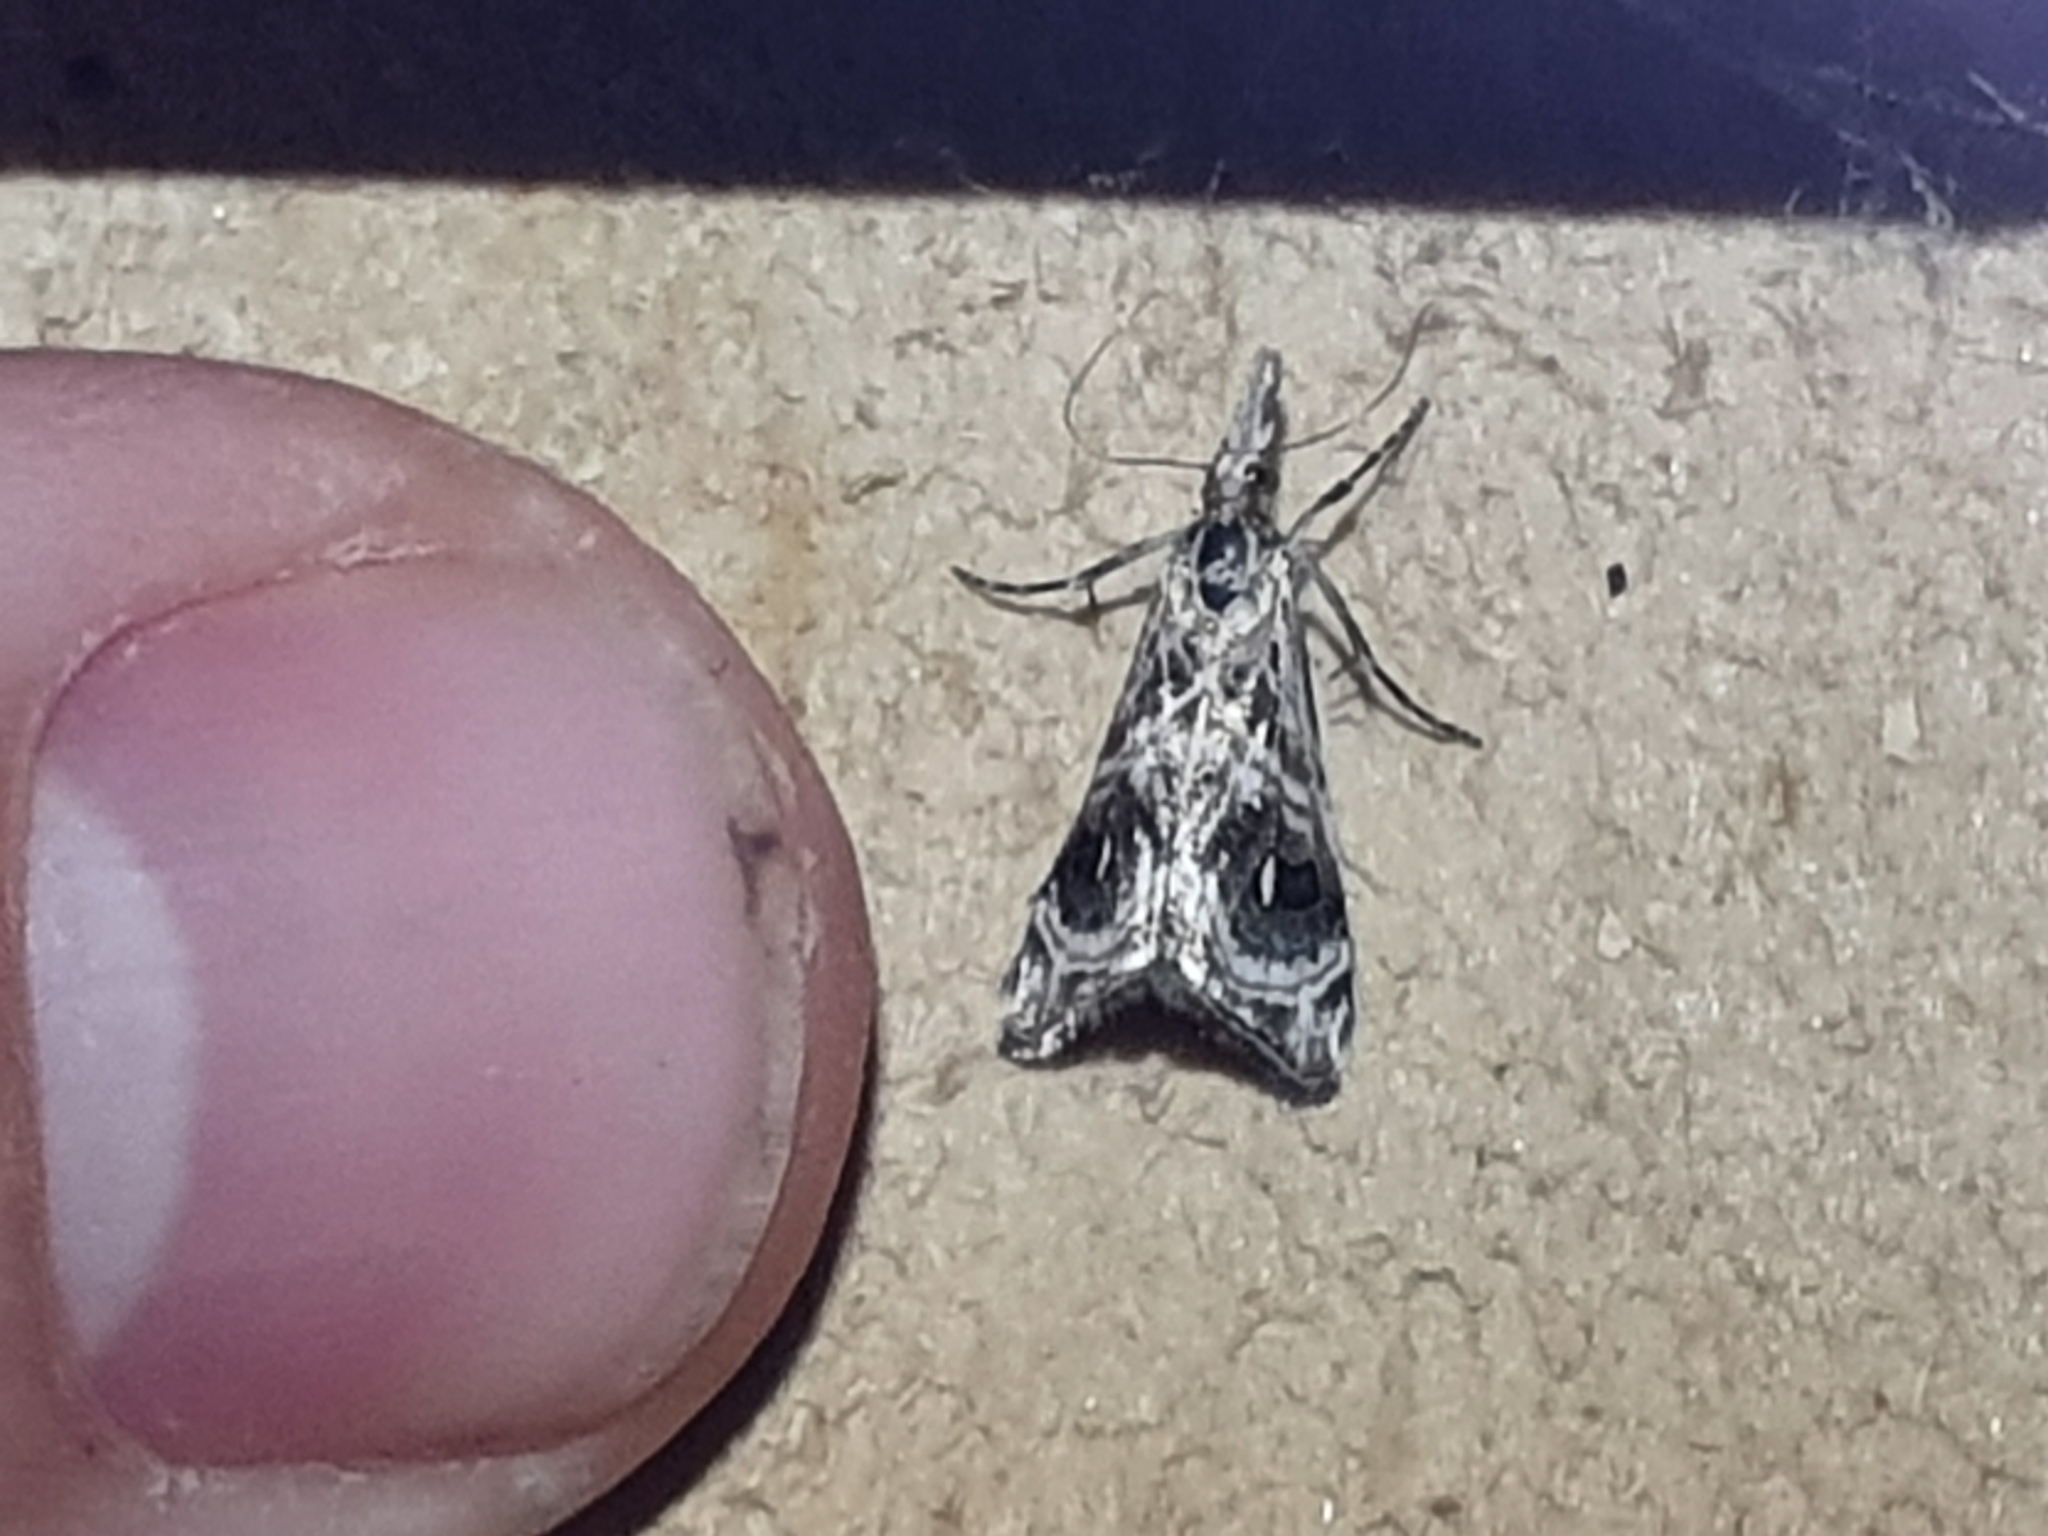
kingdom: Animalia
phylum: Arthropoda
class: Insecta
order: Lepidoptera
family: Crambidae
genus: Gadira
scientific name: Gadira acerella
